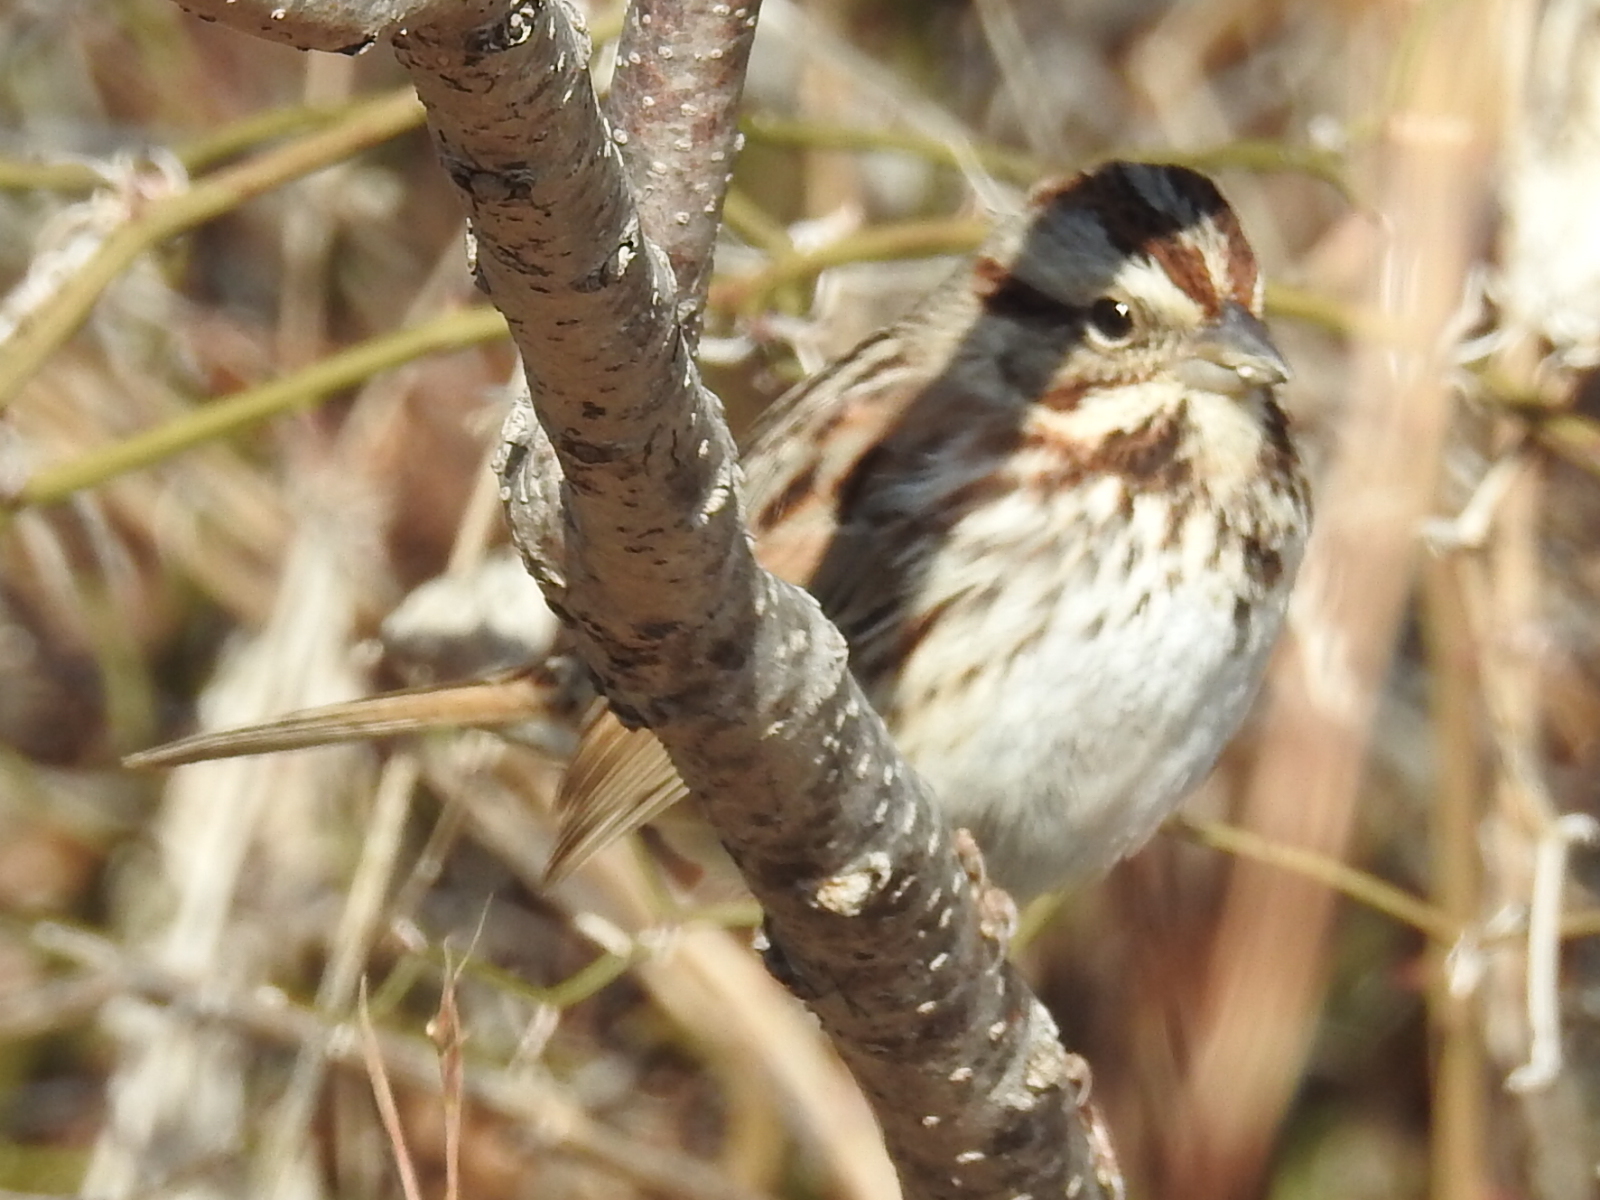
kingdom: Animalia
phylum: Chordata
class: Aves
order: Passeriformes
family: Passerellidae
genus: Melospiza
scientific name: Melospiza melodia
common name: Song sparrow
